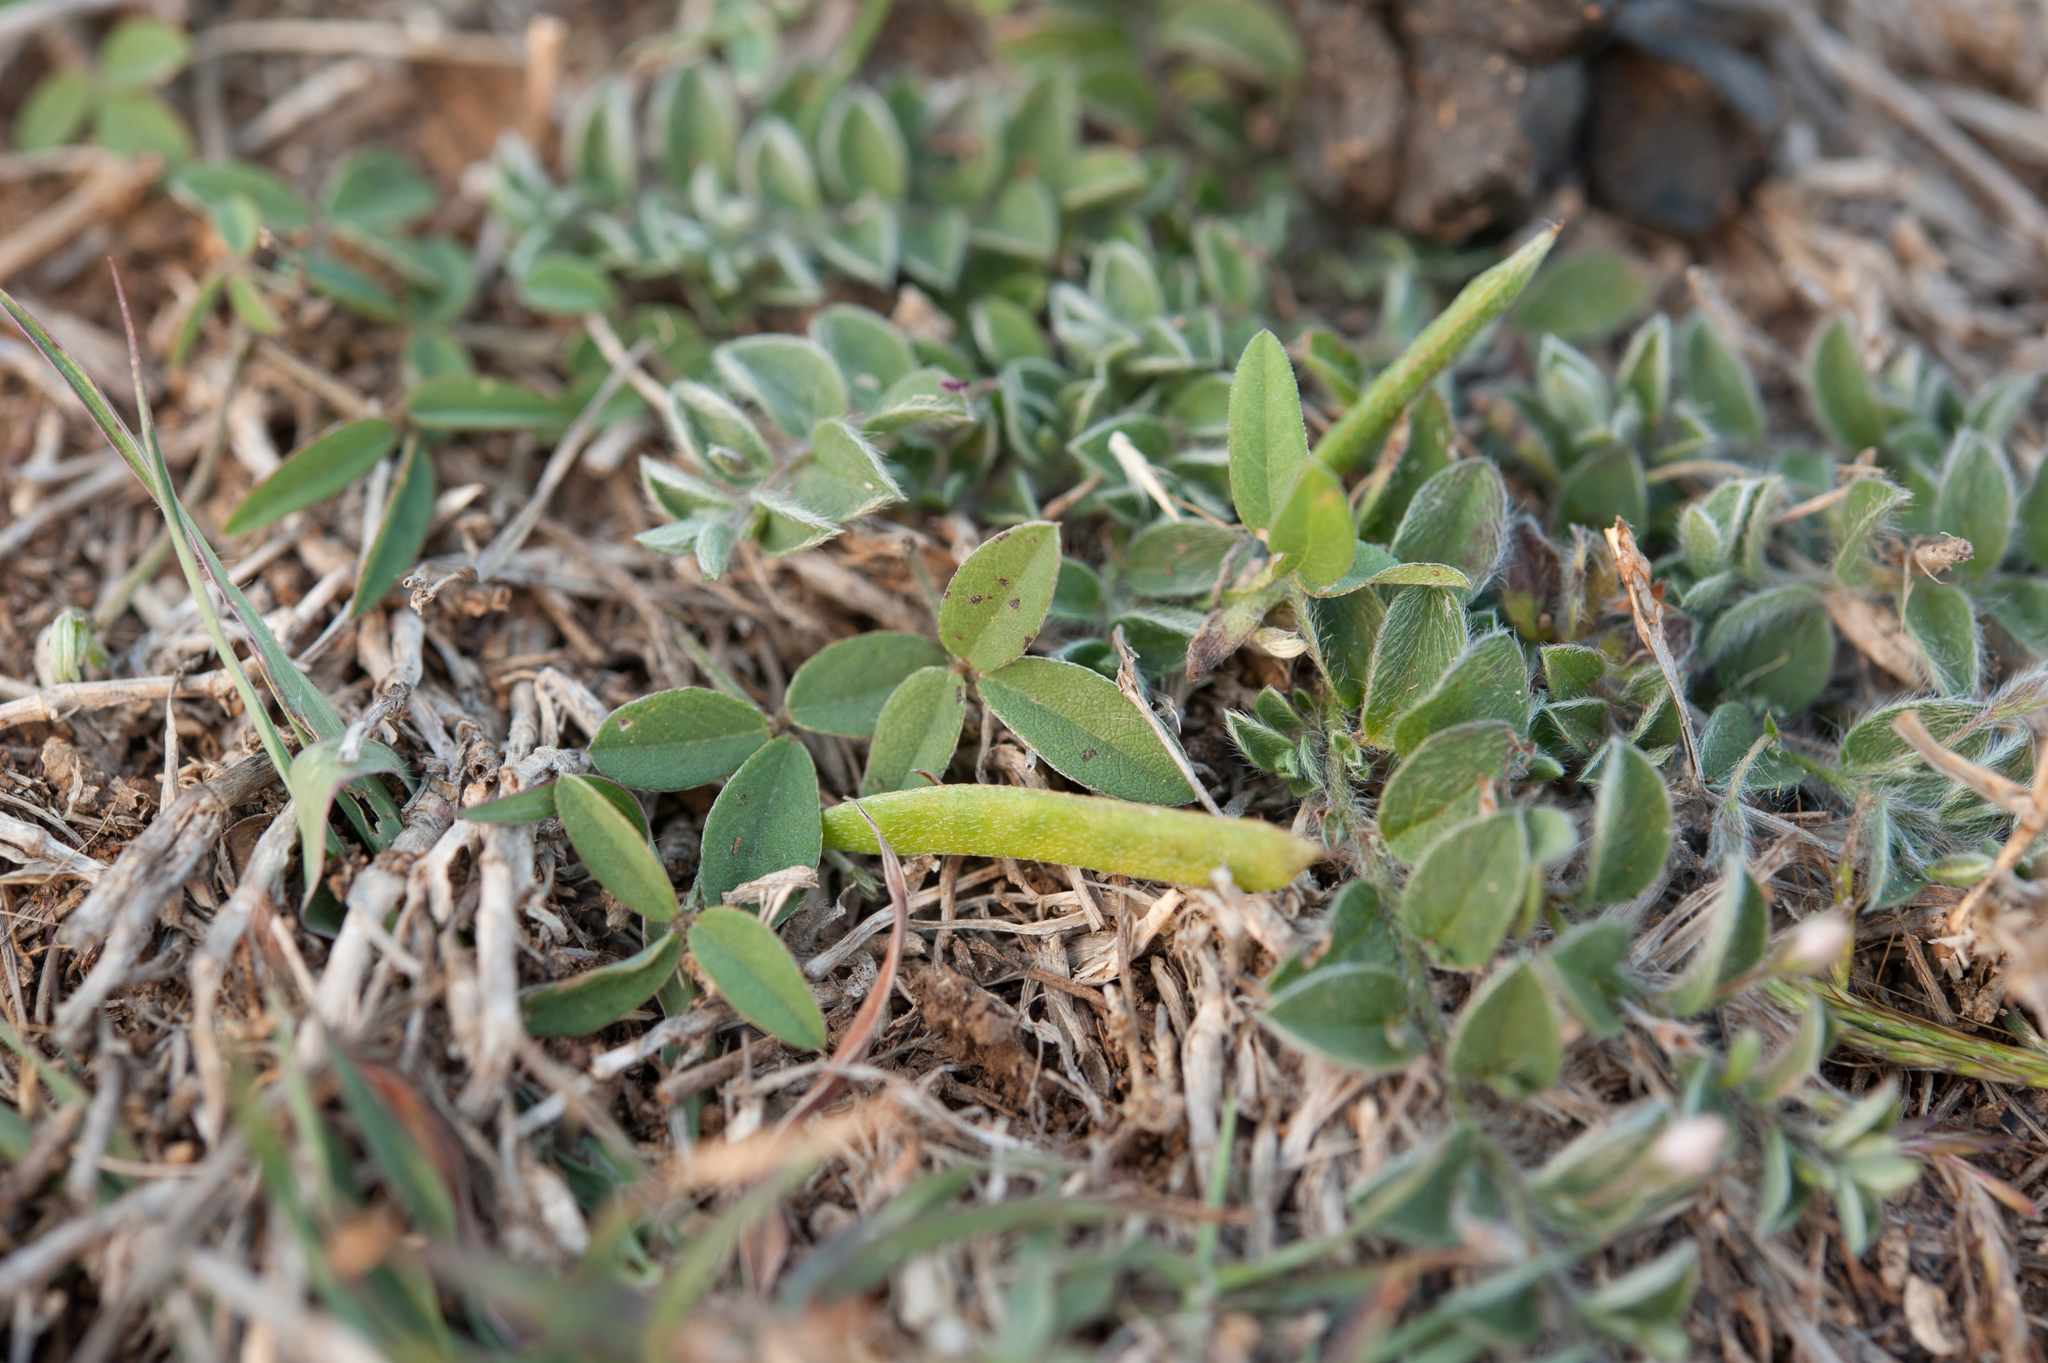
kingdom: Plantae
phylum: Tracheophyta
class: Magnoliopsida
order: Fabales
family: Fabaceae
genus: Glycine
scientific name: Glycine tabacina
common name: Pea glycine
